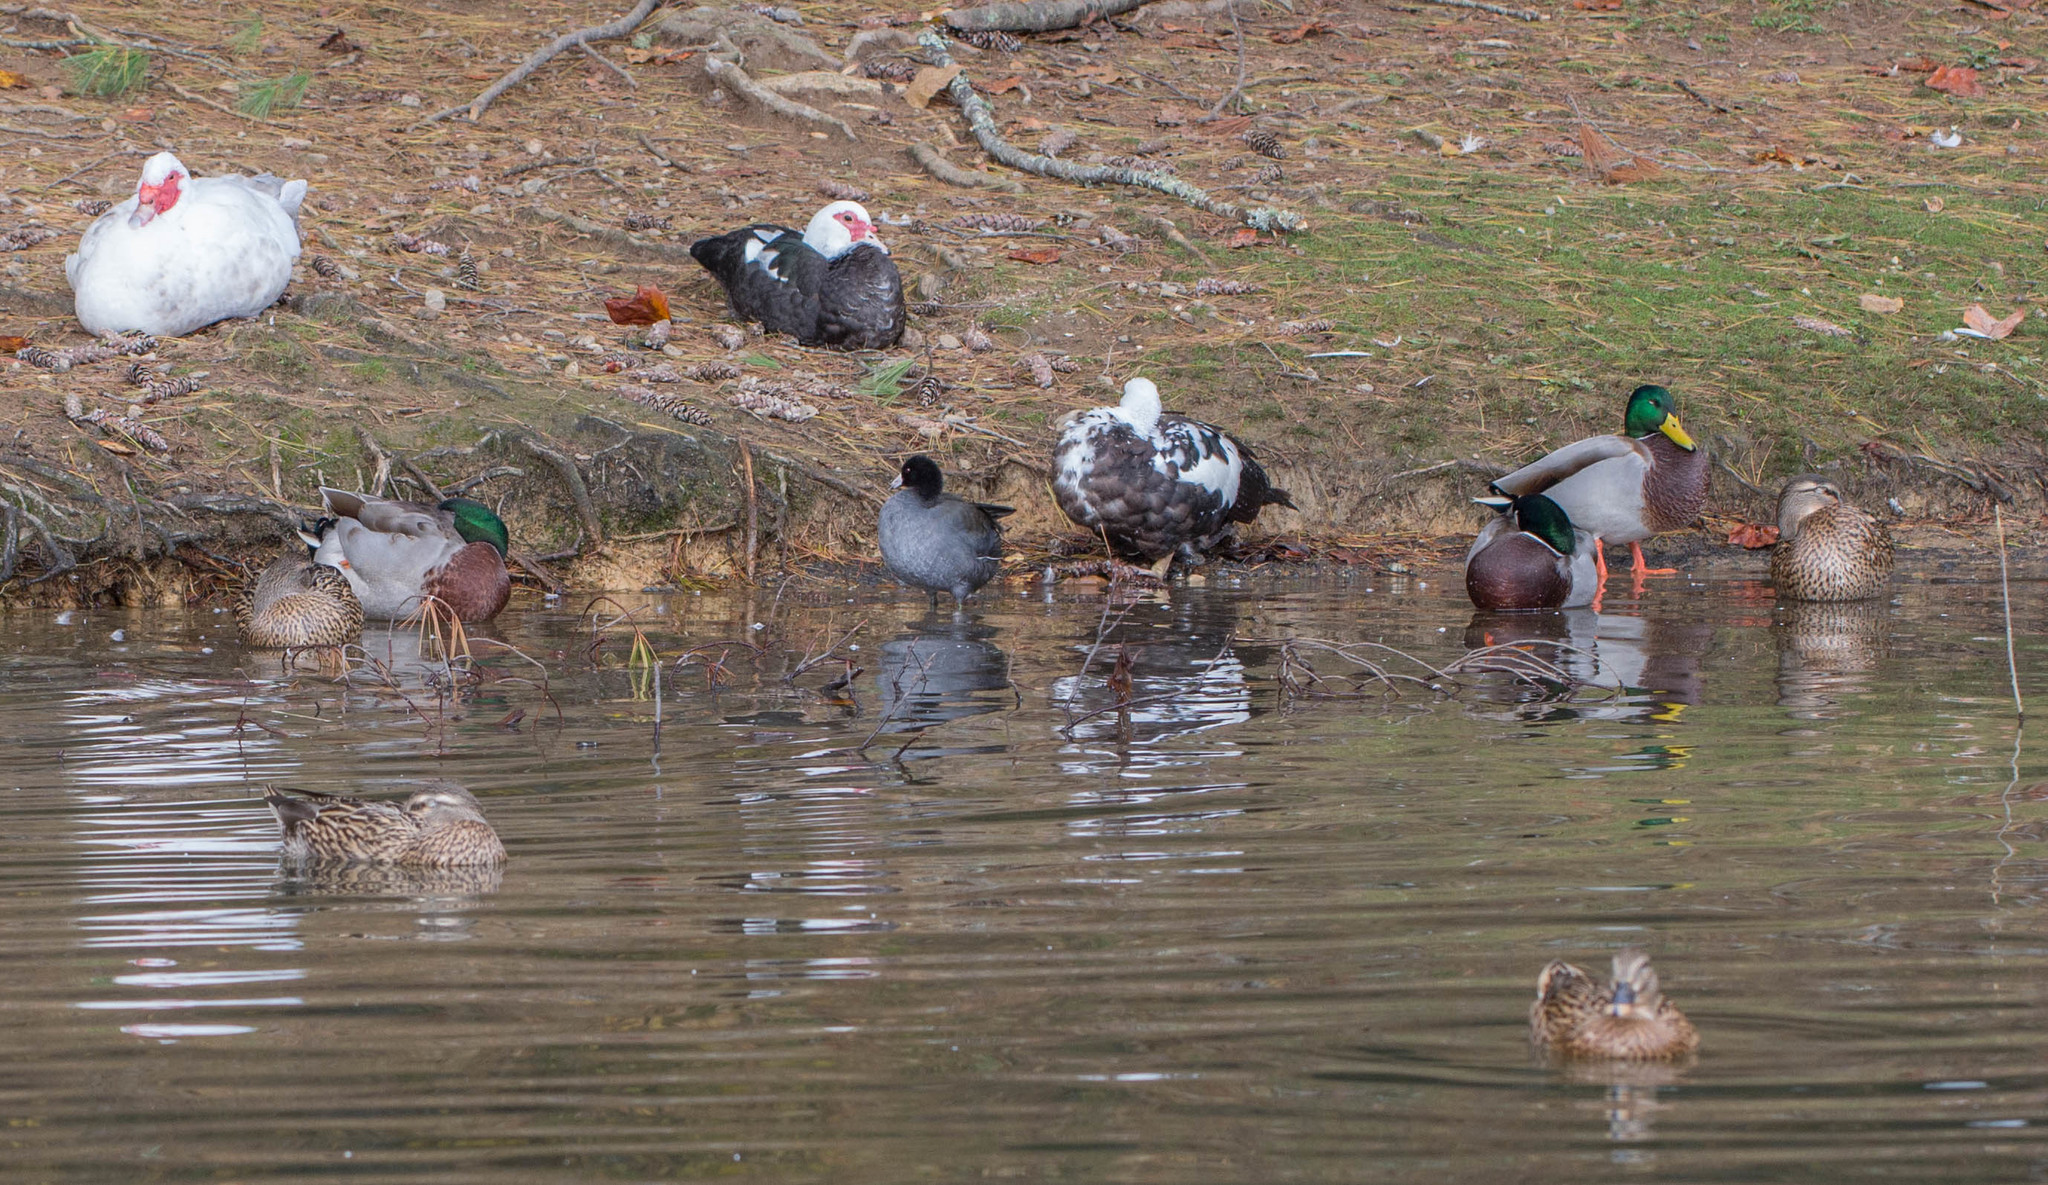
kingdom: Animalia
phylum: Chordata
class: Aves
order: Gruiformes
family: Rallidae
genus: Fulica
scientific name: Fulica americana
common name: American coot
